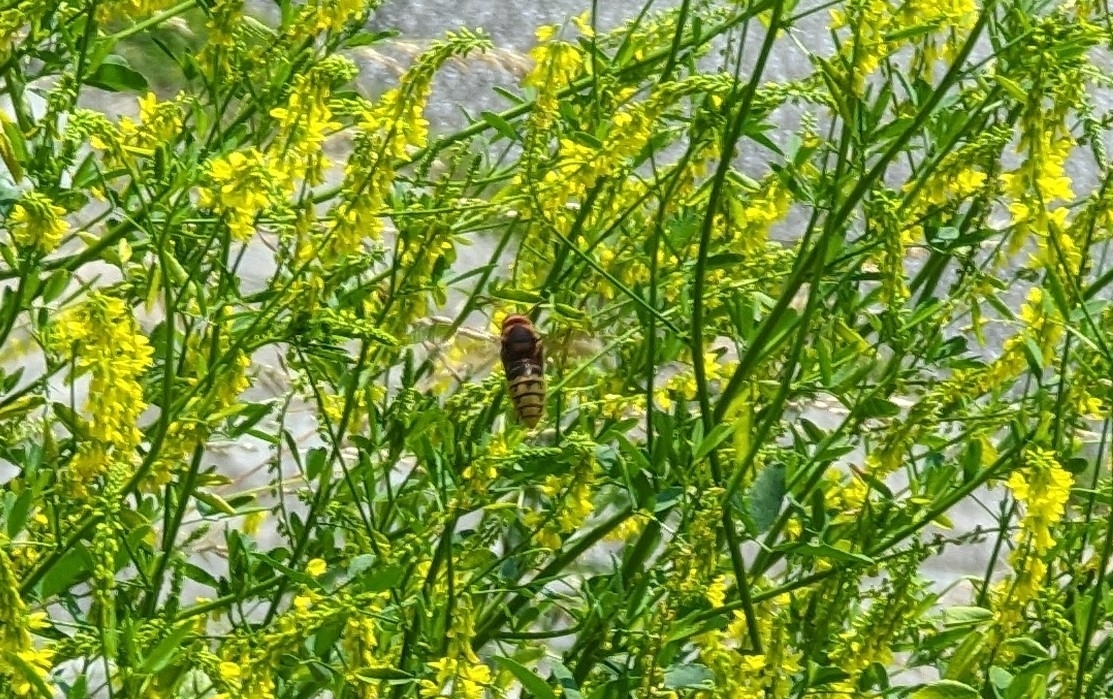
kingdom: Animalia
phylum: Arthropoda
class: Insecta
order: Hymenoptera
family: Vespidae
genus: Vespa
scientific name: Vespa crabro
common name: Hornet
